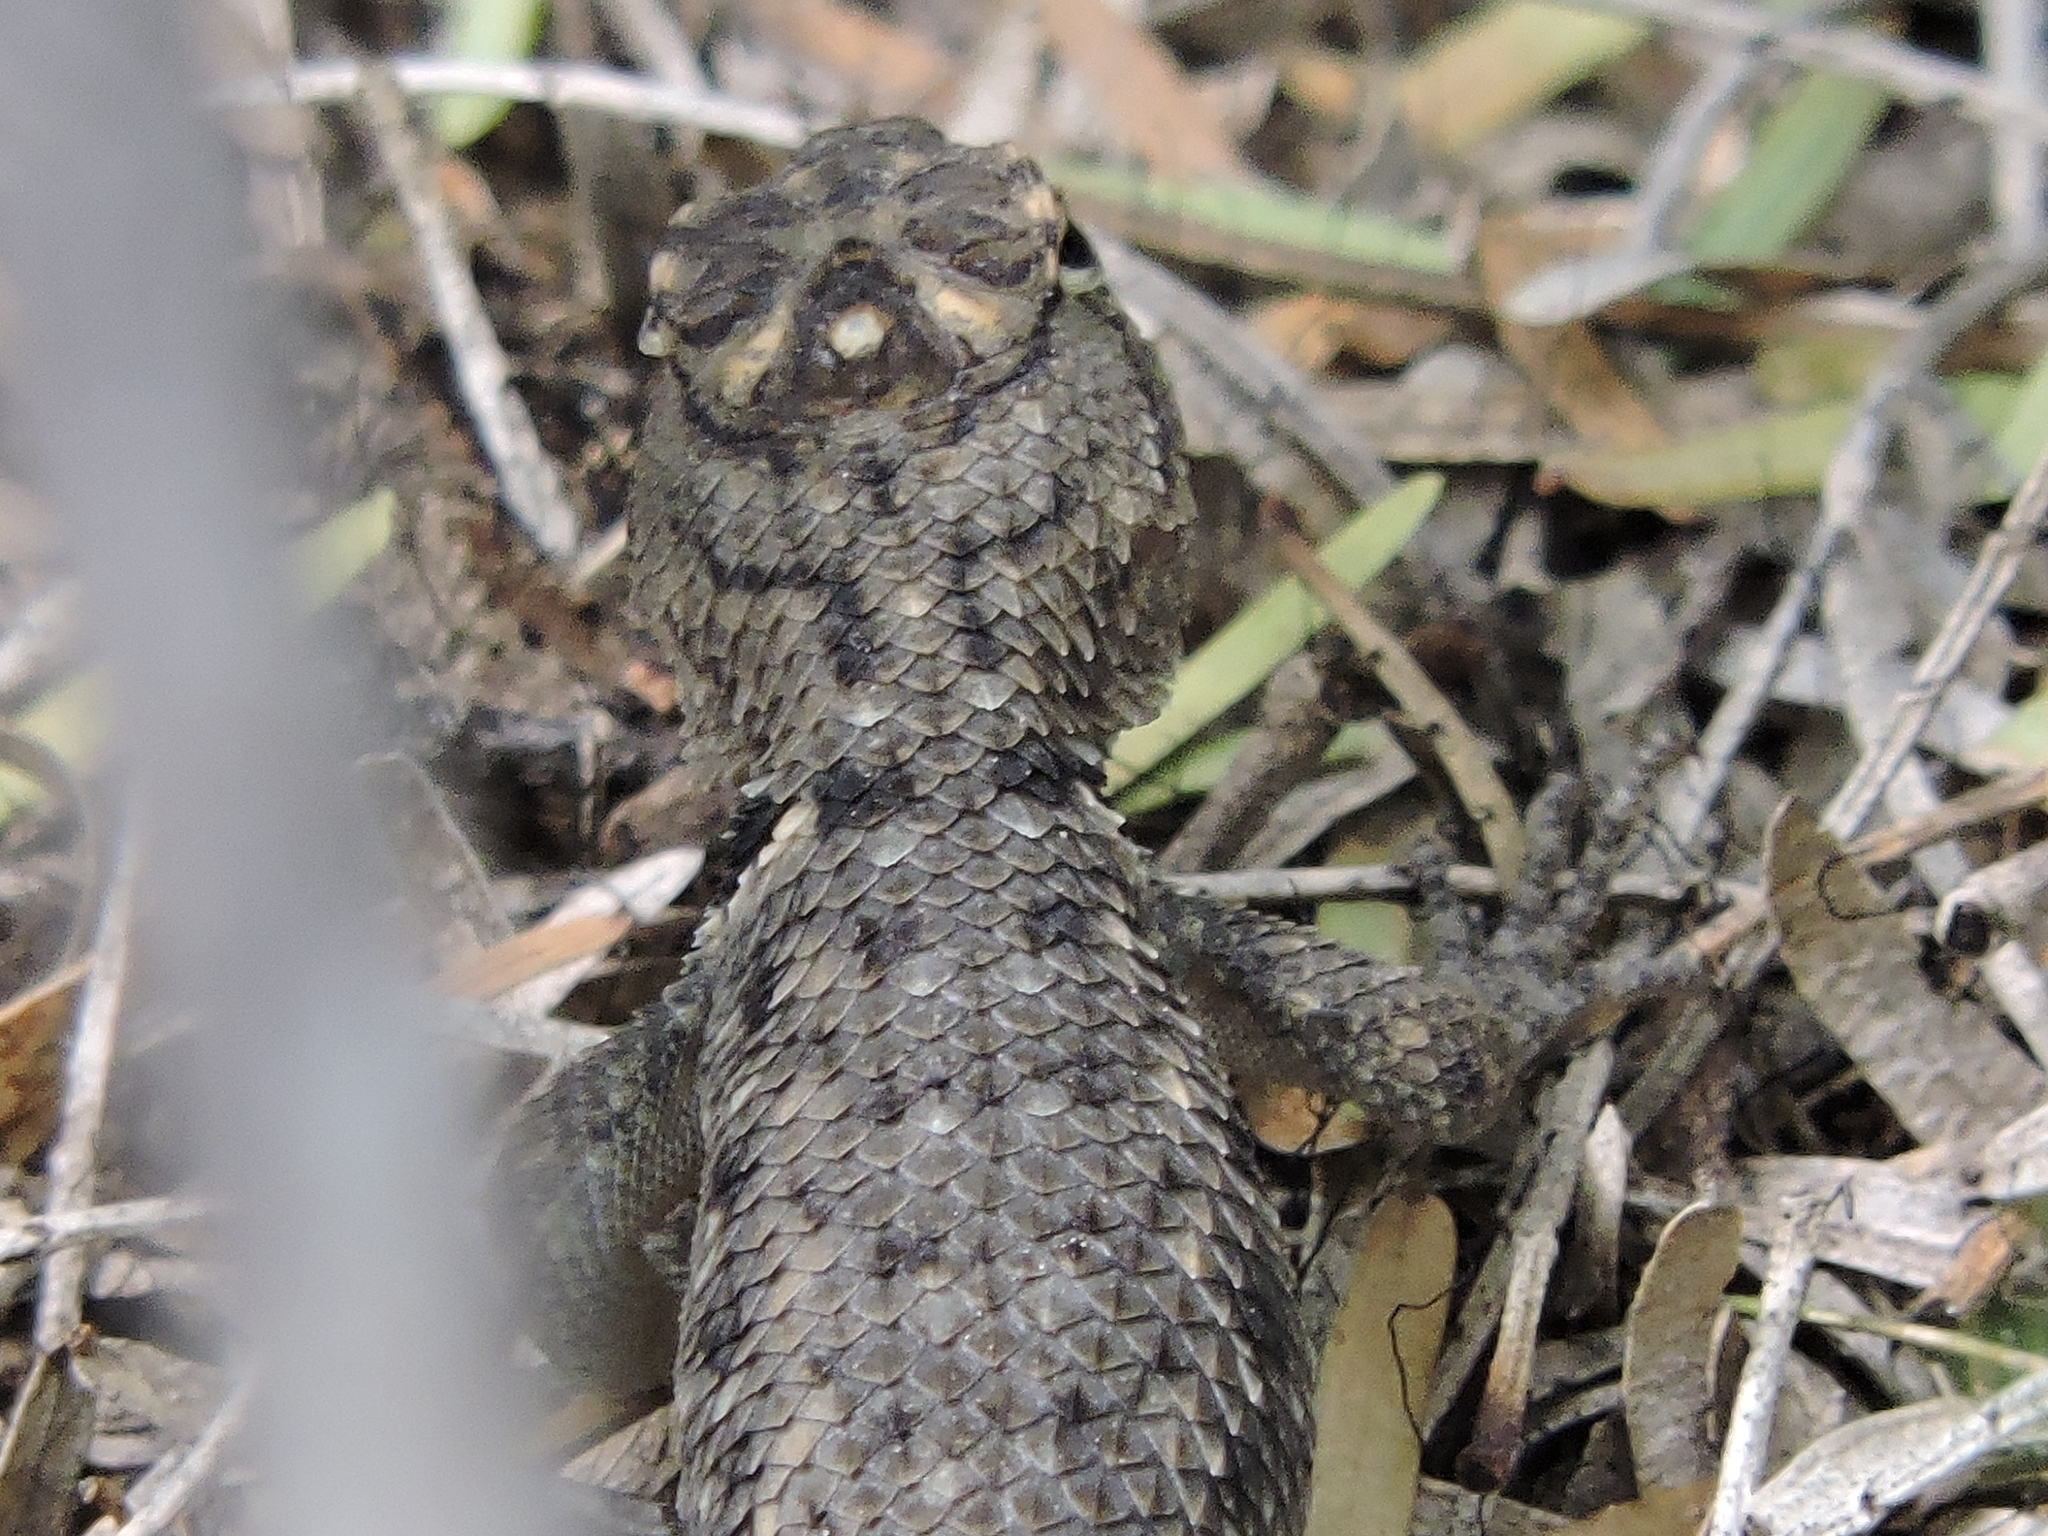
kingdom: Animalia
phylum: Chordata
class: Squamata
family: Phrynosomatidae
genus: Sceloporus
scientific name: Sceloporus bimaculosus
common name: Twin-spotted spiny lizard
